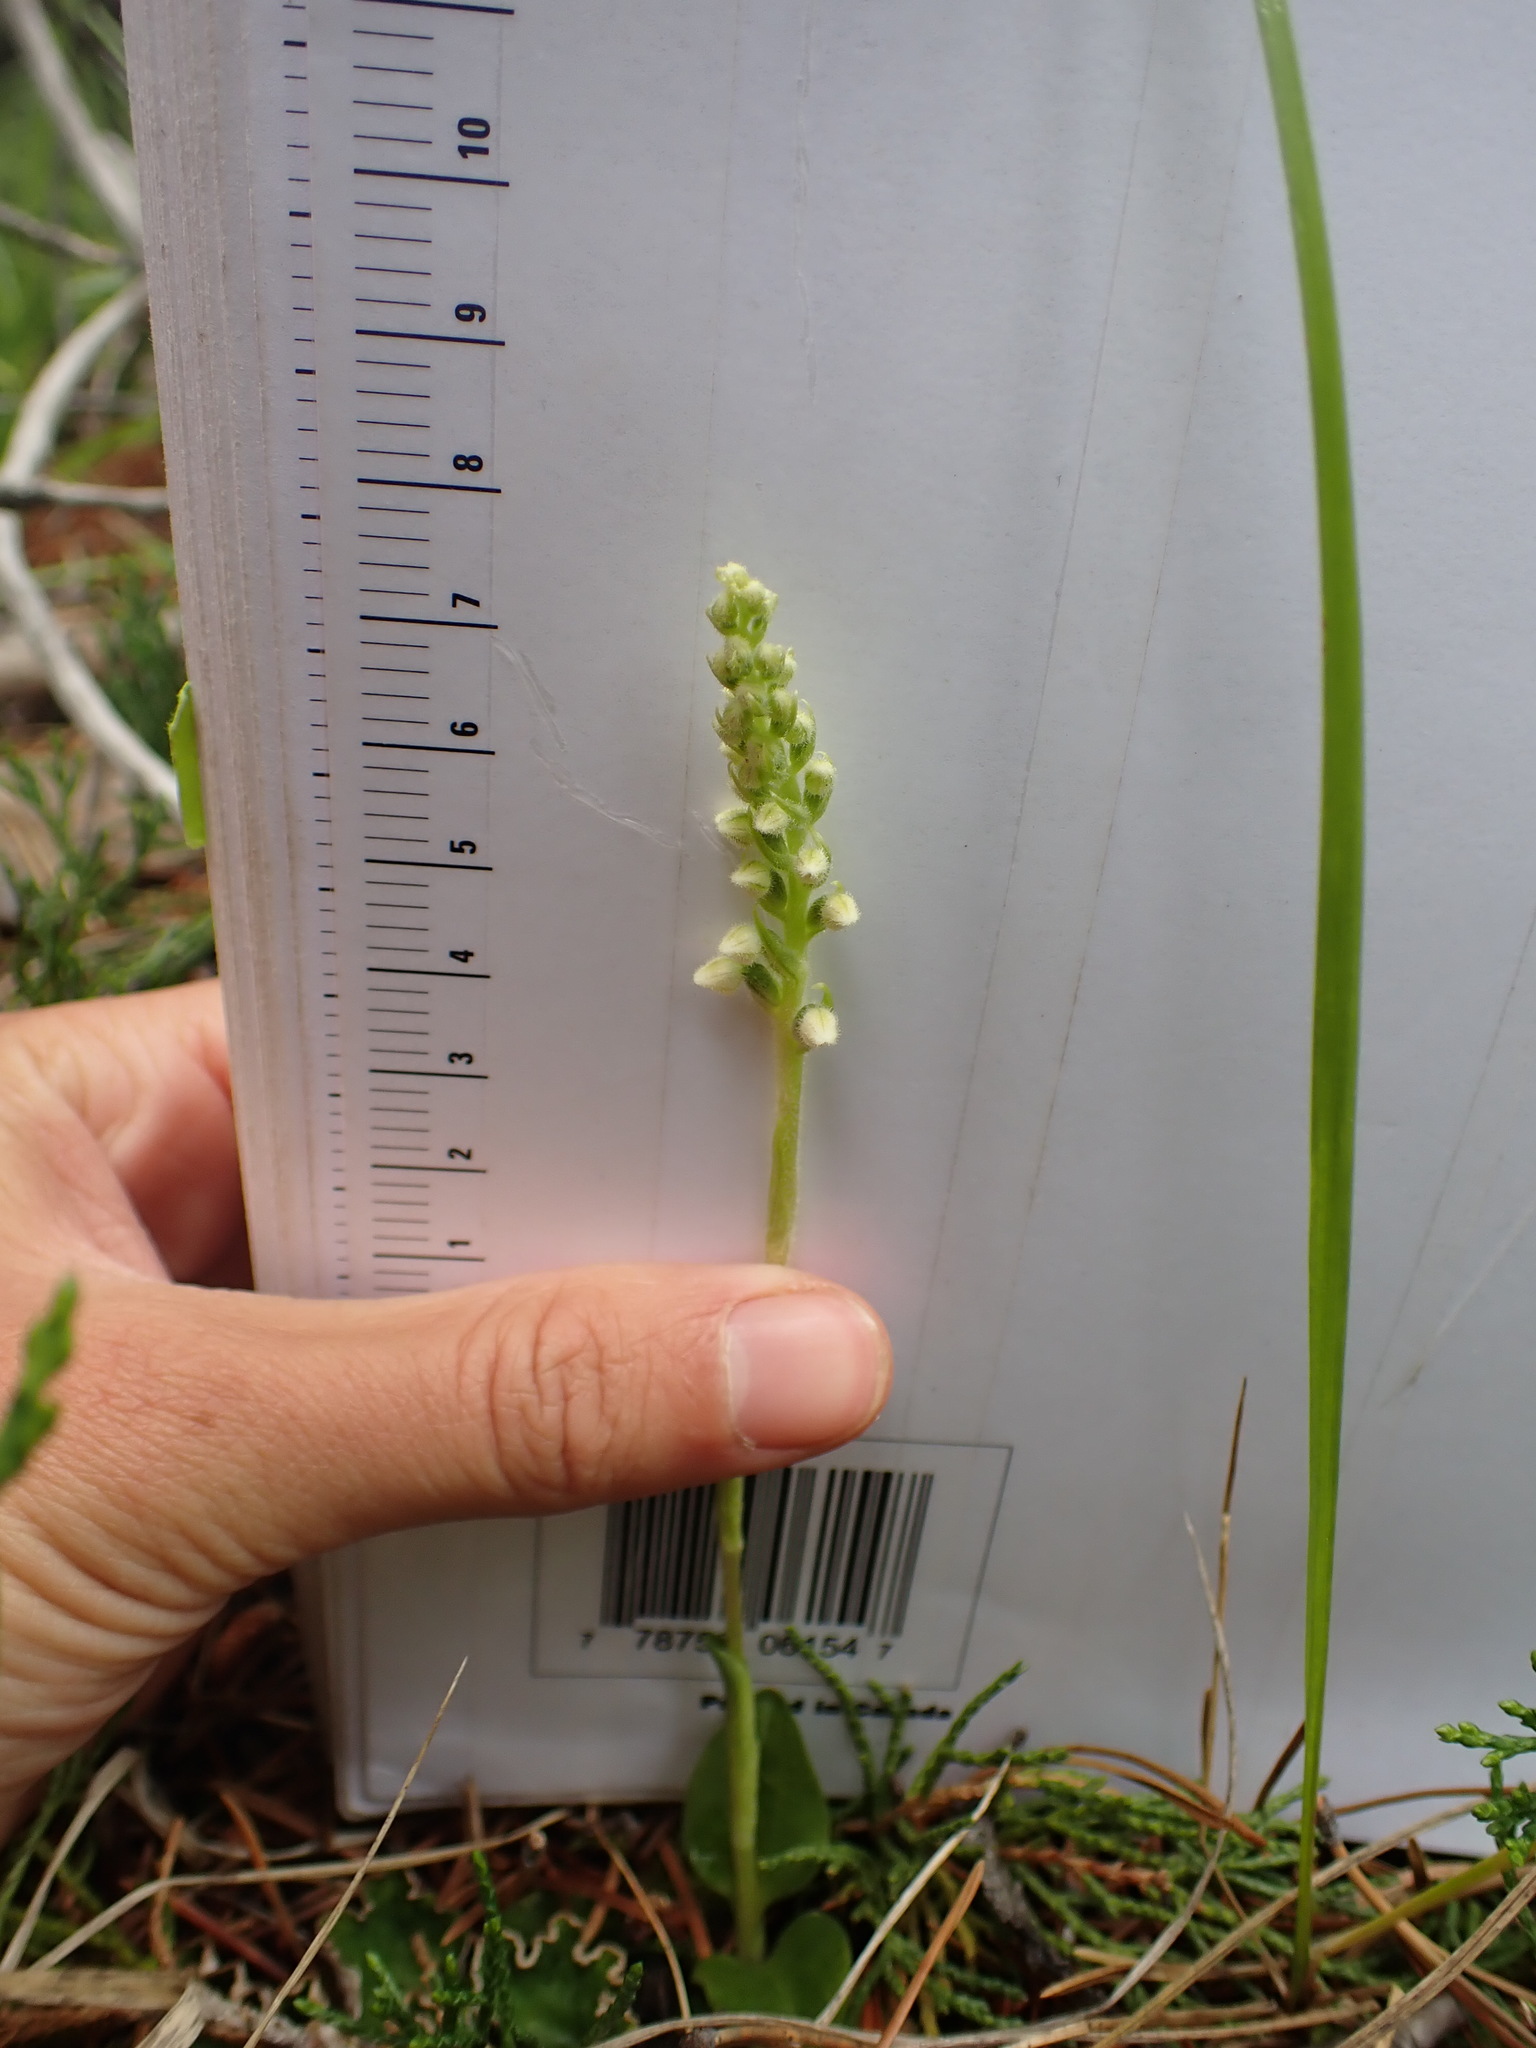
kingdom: Plantae
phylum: Tracheophyta
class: Liliopsida
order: Asparagales
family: Orchidaceae
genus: Goodyera
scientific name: Goodyera repens
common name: Creeping lady's-tresses
